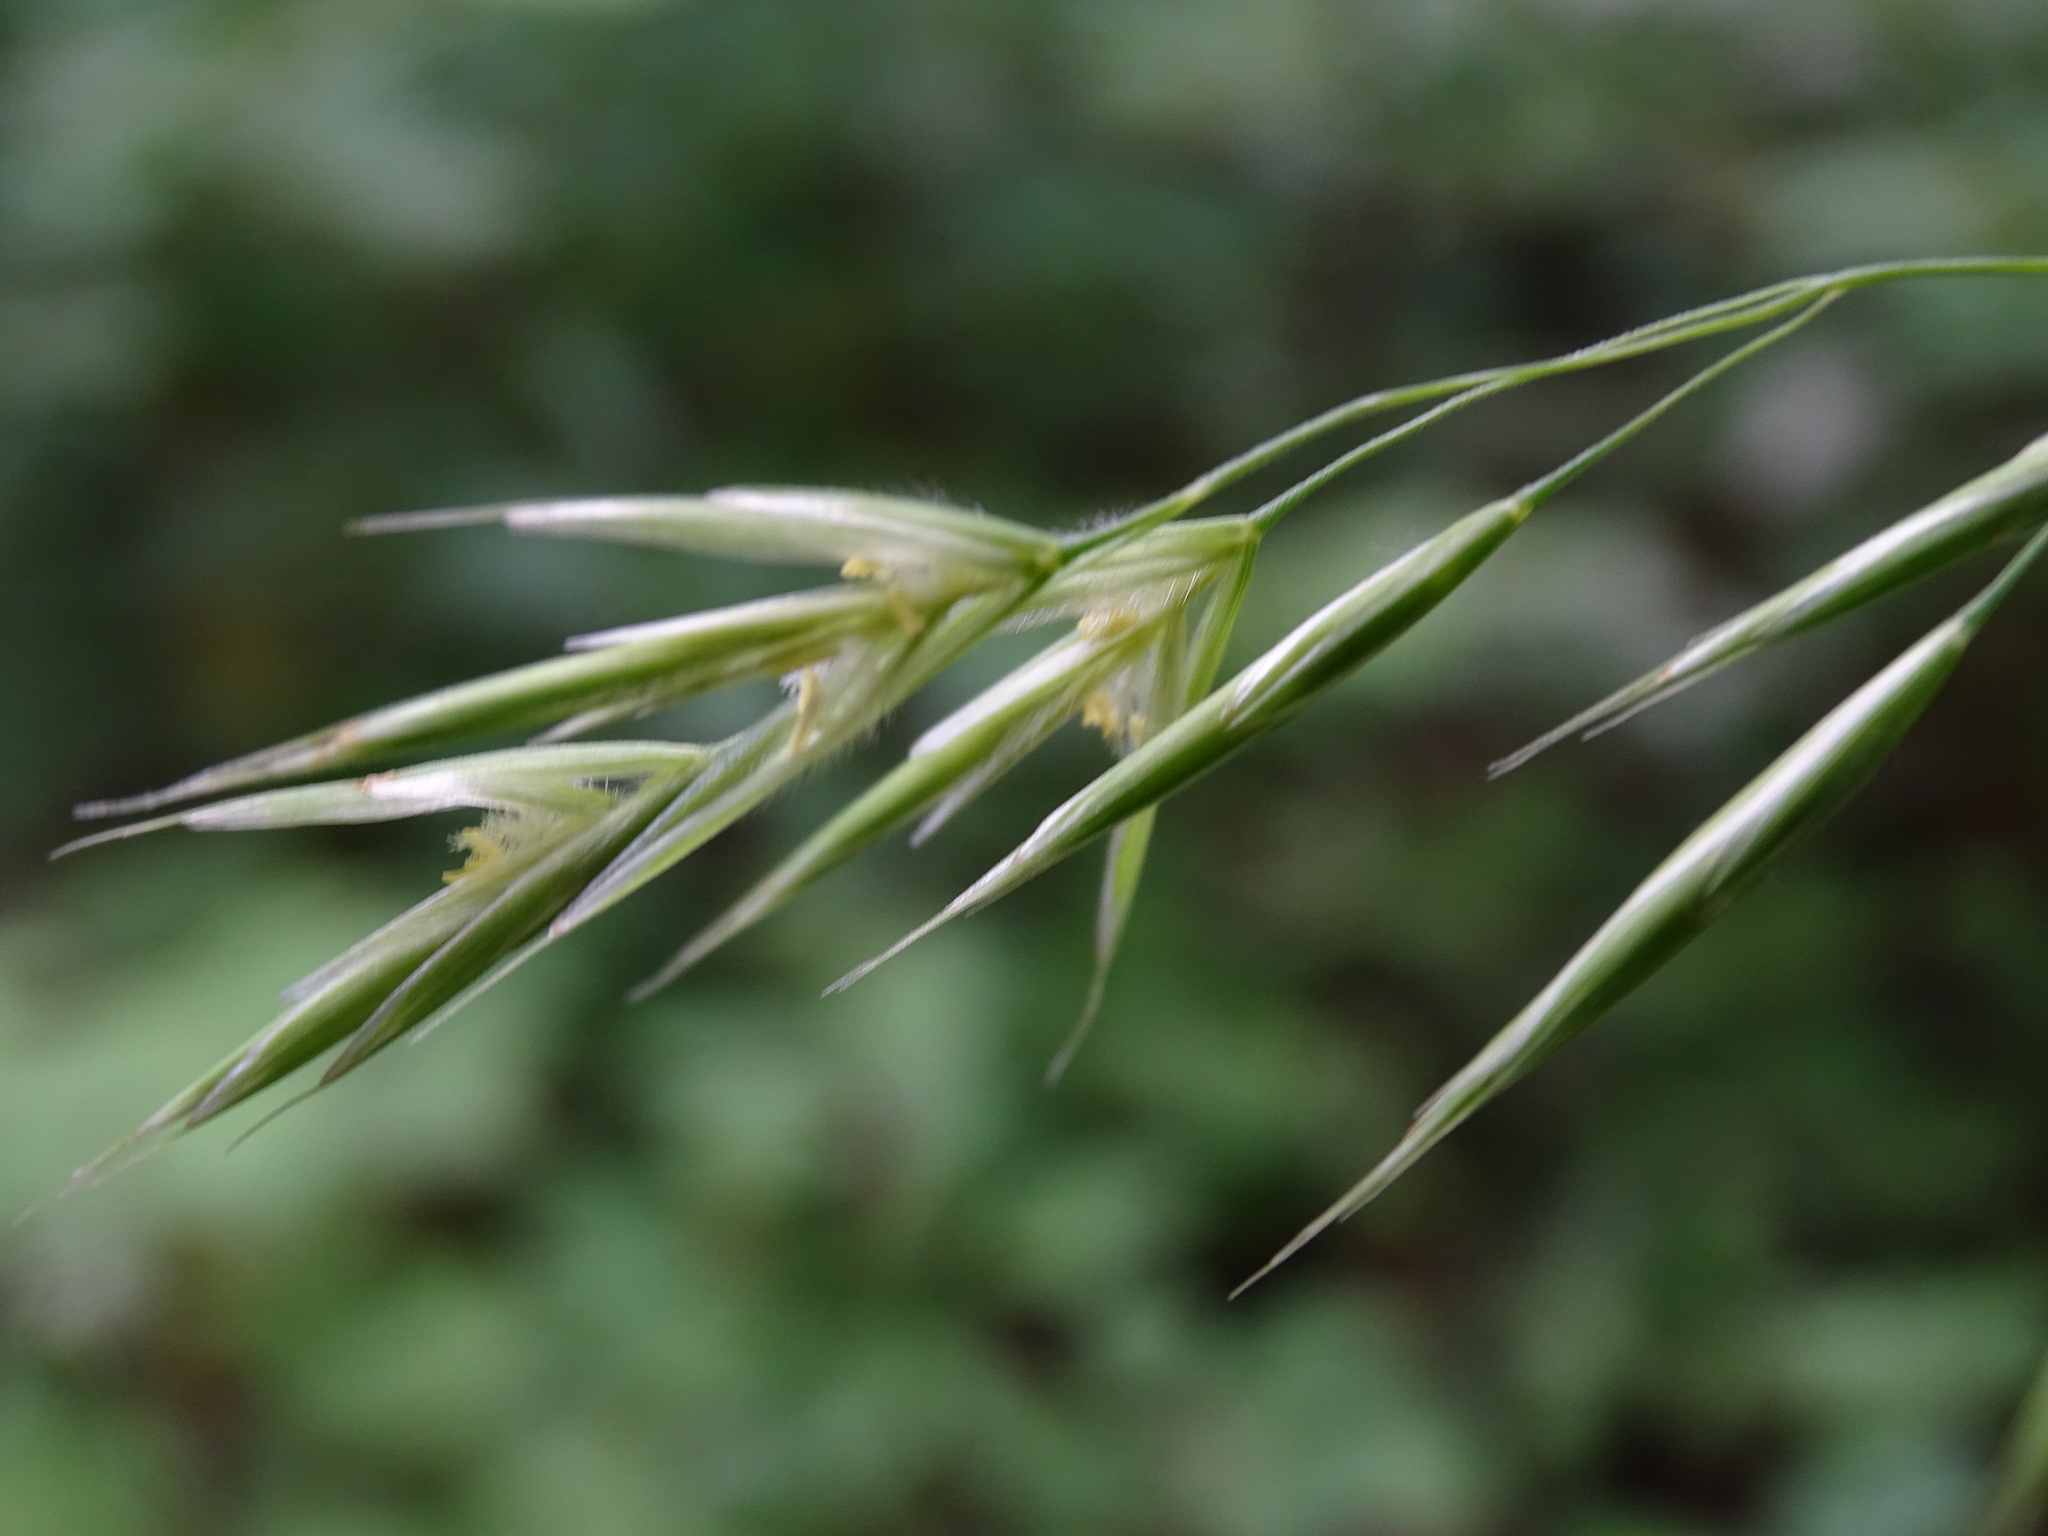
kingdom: Plantae
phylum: Tracheophyta
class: Liliopsida
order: Poales
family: Poaceae
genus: Bromus
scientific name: Bromus ciliatus
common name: Fringe brome
